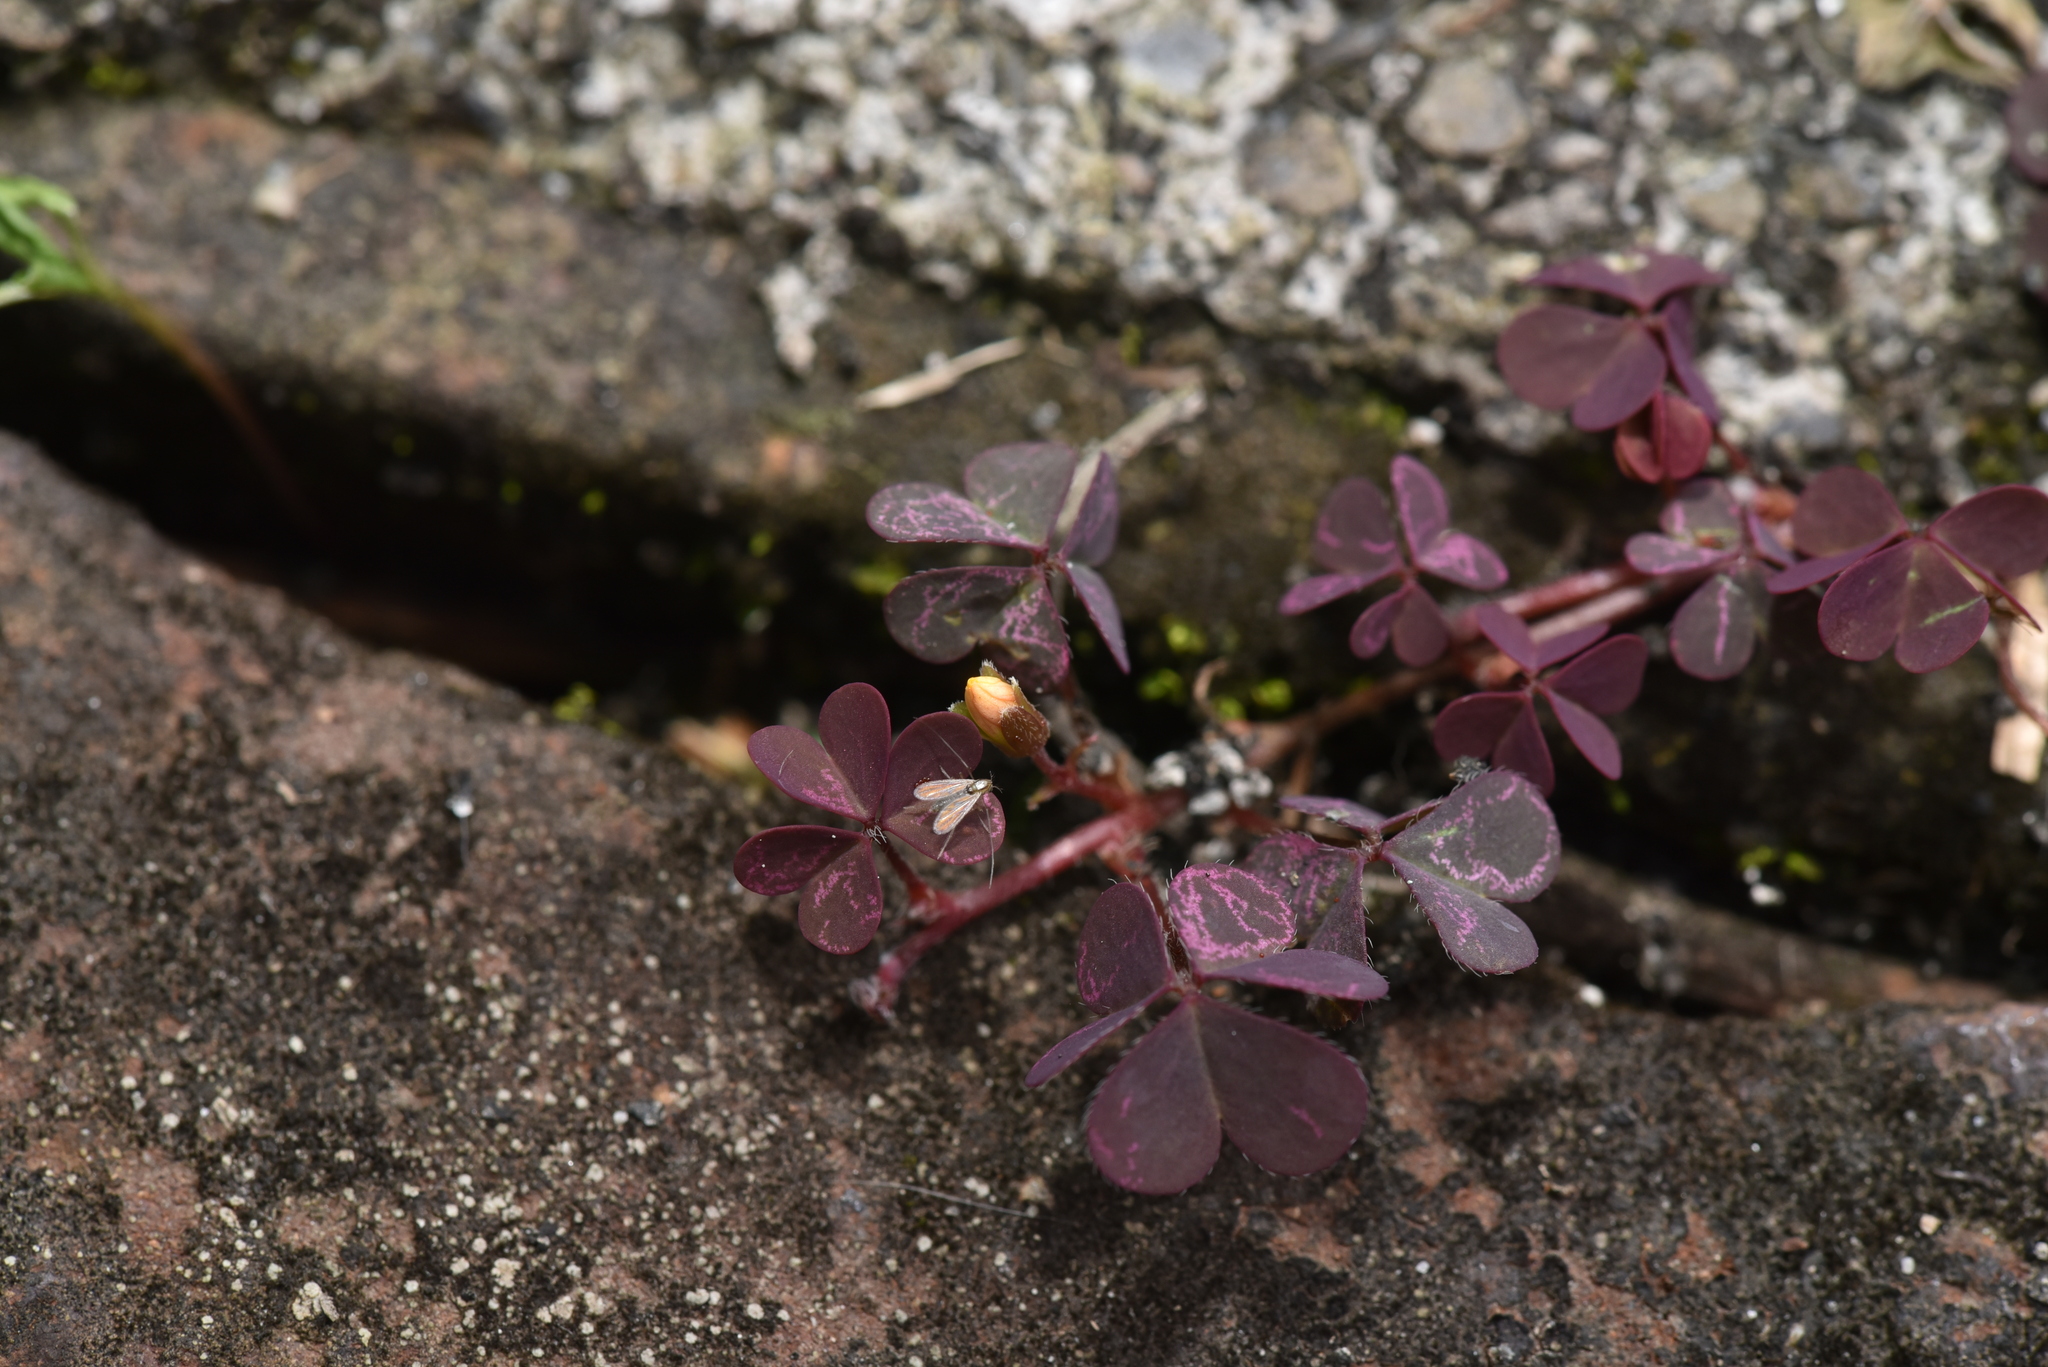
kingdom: Plantae
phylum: Tracheophyta
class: Magnoliopsida
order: Oxalidales
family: Oxalidaceae
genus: Oxalis
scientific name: Oxalis corniculata
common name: Procumbent yellow-sorrel
